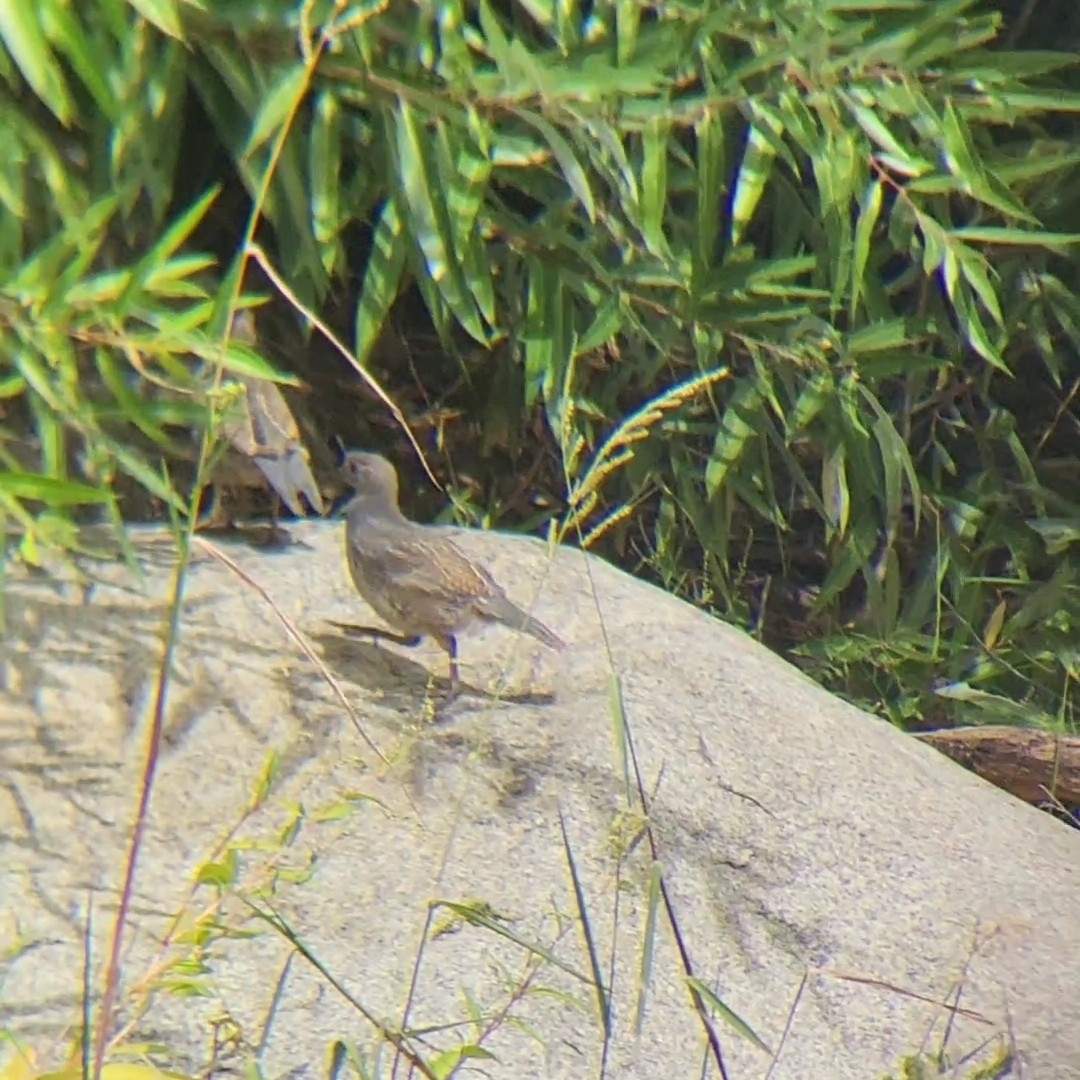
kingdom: Animalia
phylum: Chordata
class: Aves
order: Galliformes
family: Odontophoridae
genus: Callipepla
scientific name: Callipepla californica
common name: California quail
